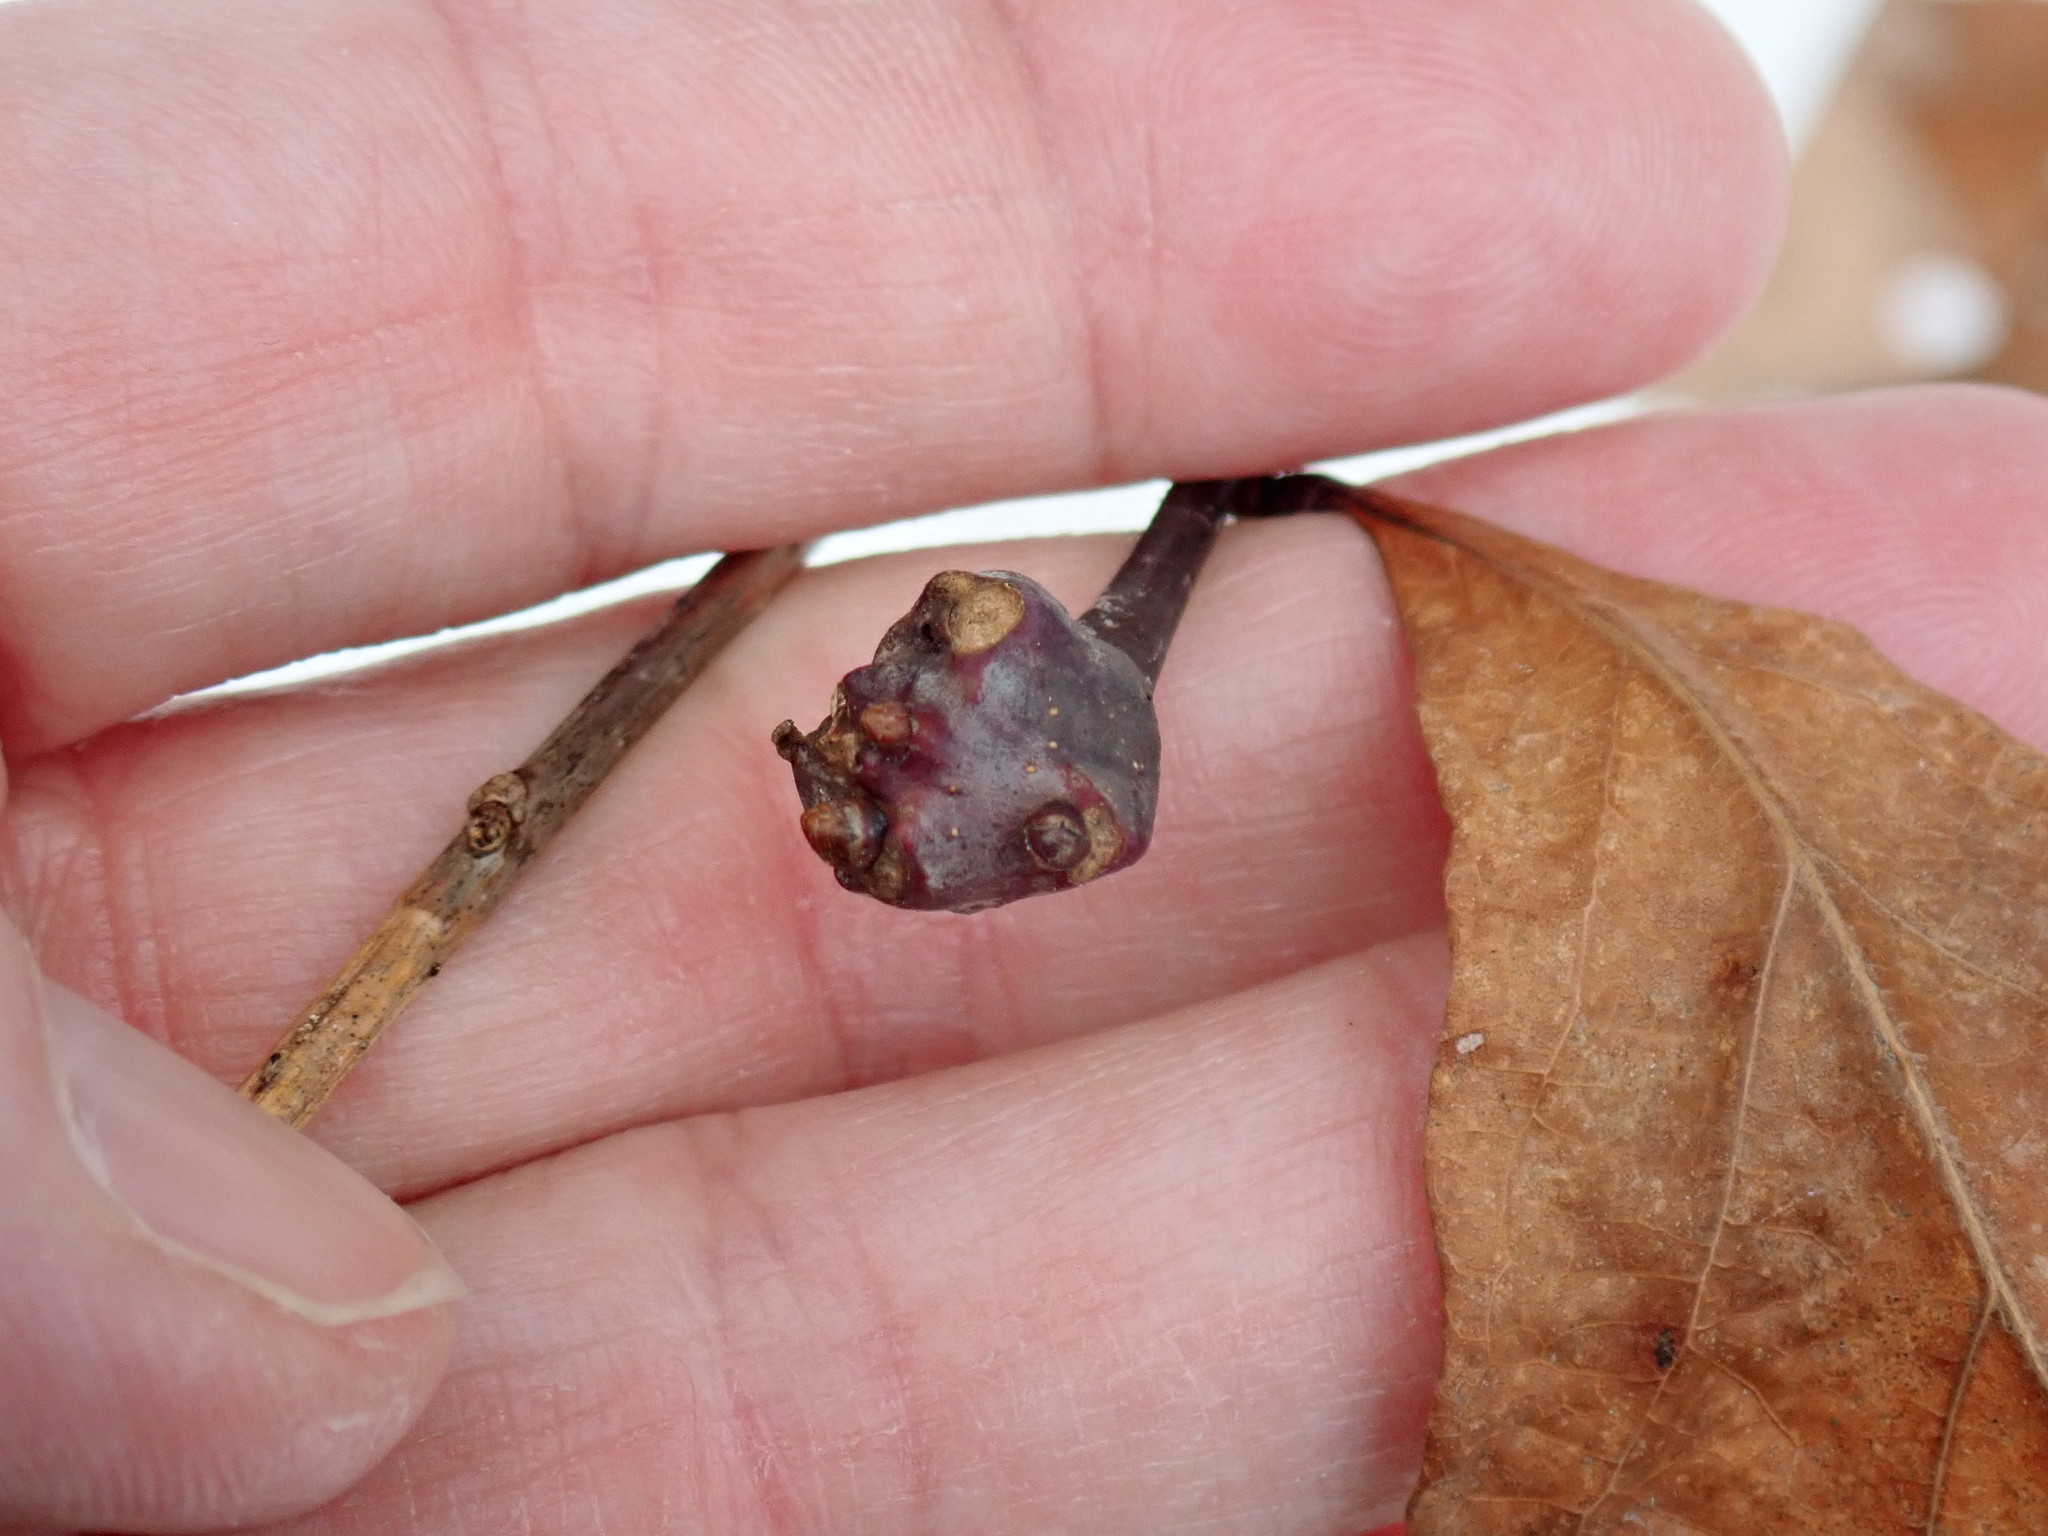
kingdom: Animalia
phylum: Arthropoda
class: Insecta
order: Hymenoptera
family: Cynipidae
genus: Callirhytis
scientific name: Callirhytis clavula
